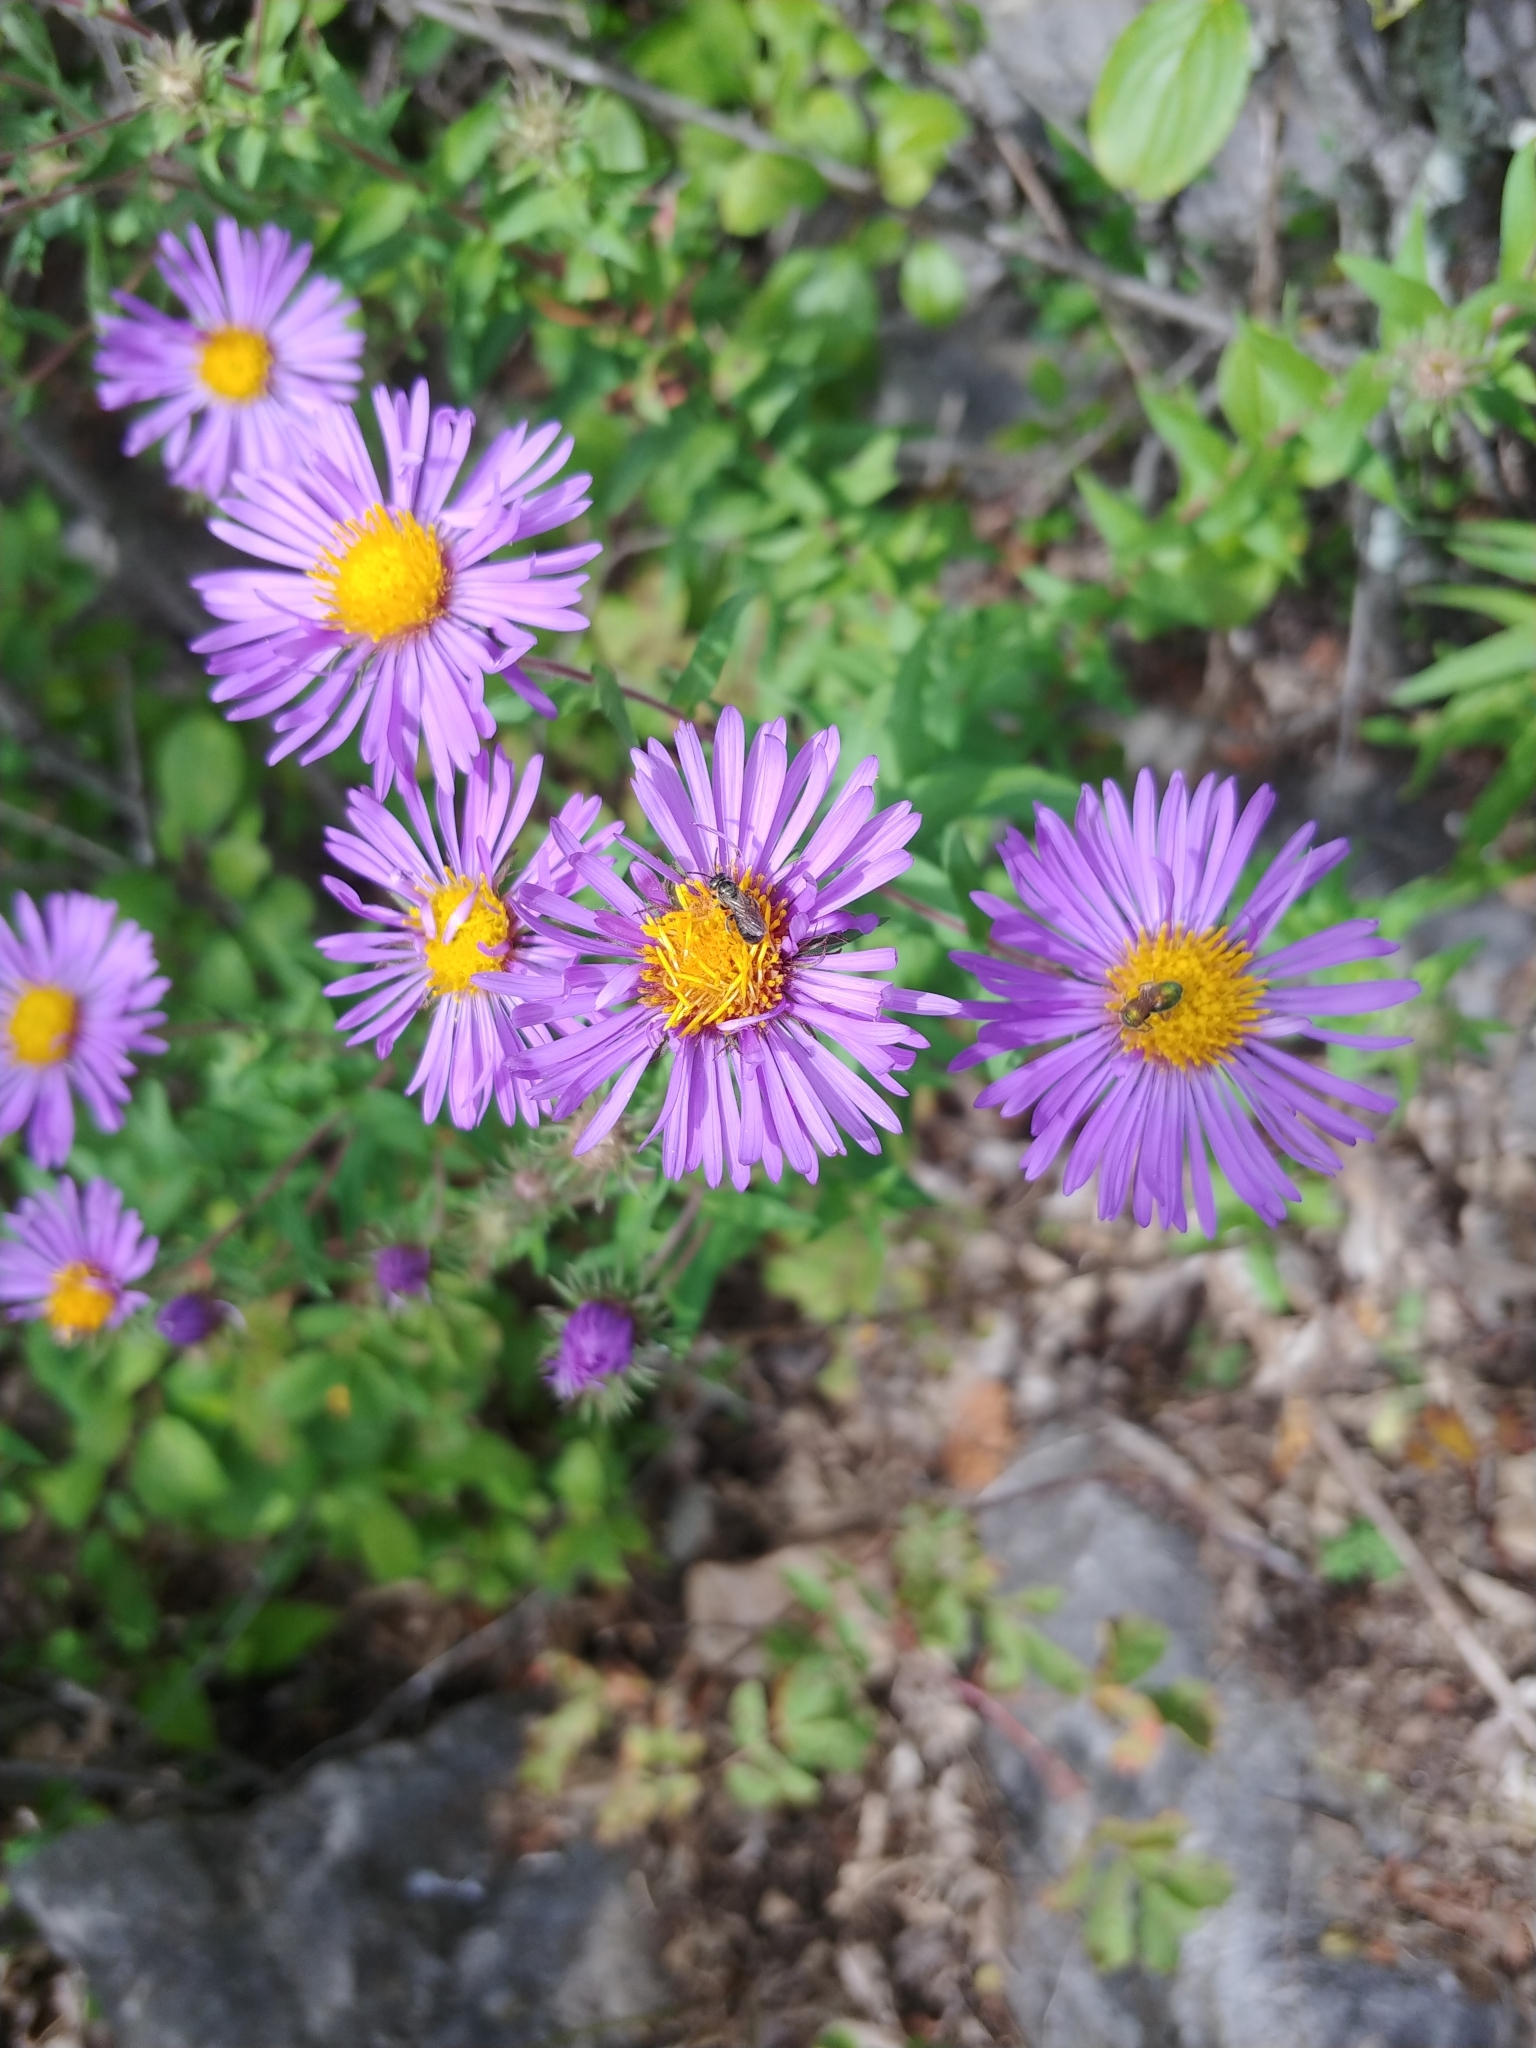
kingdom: Plantae
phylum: Tracheophyta
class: Magnoliopsida
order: Asterales
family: Asteraceae
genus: Symphyotrichum
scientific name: Symphyotrichum novae-angliae
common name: Michaelmas daisy
